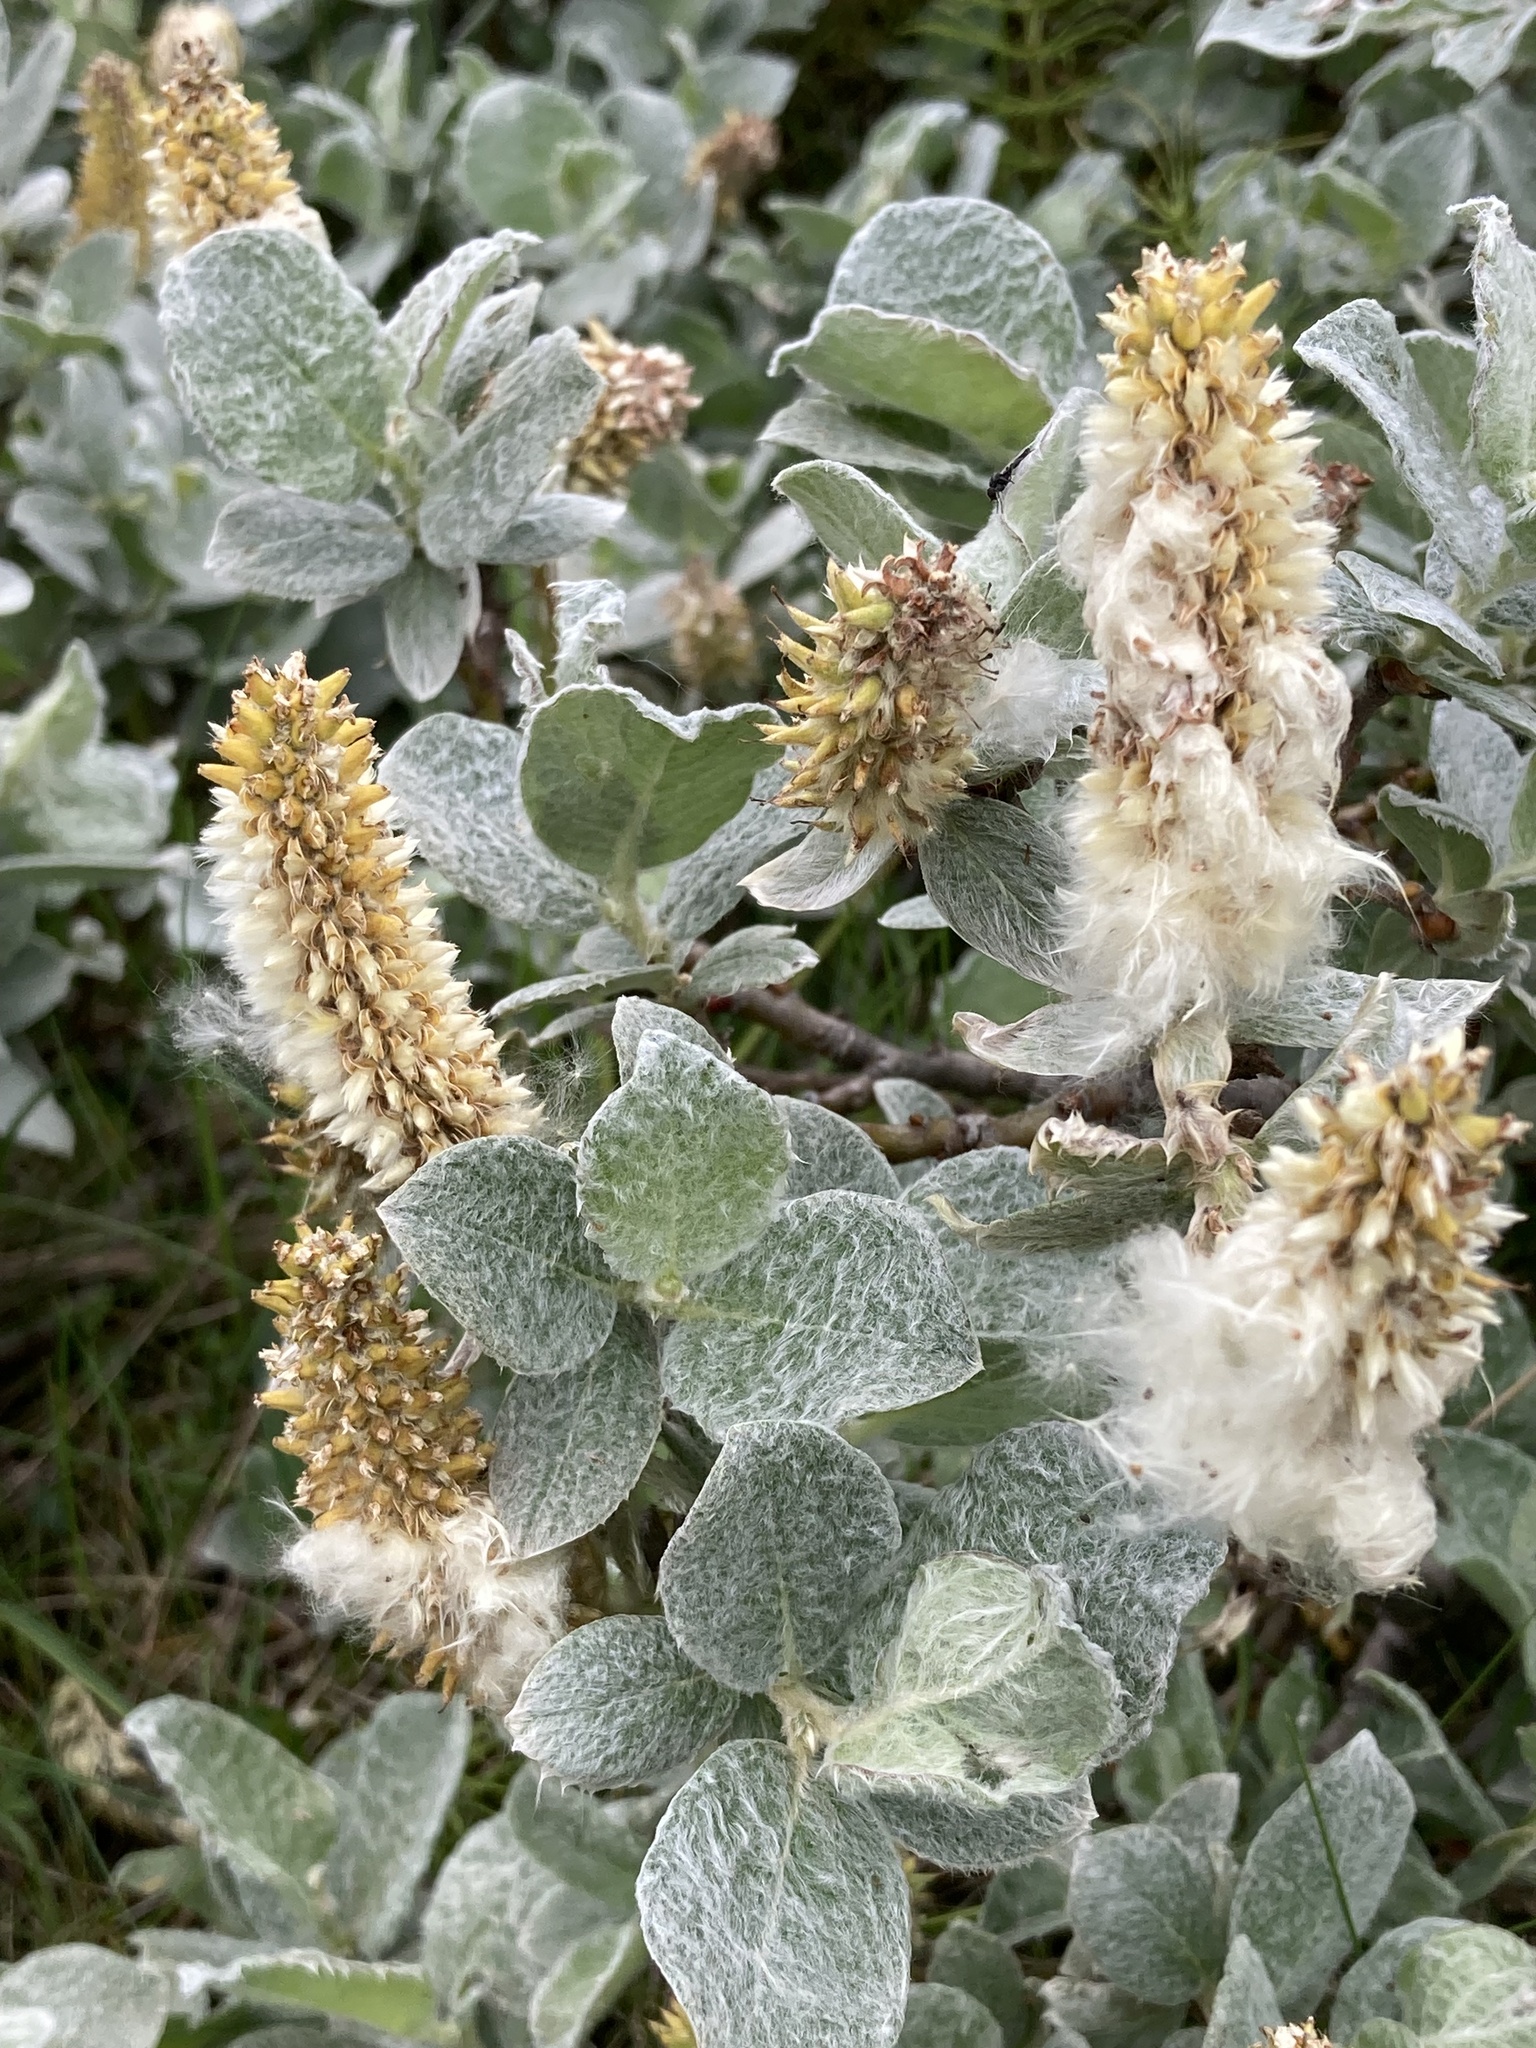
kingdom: Plantae
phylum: Tracheophyta
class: Magnoliopsida
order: Malpighiales
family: Salicaceae
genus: Salix
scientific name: Salix lanata
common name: Woolly willow
